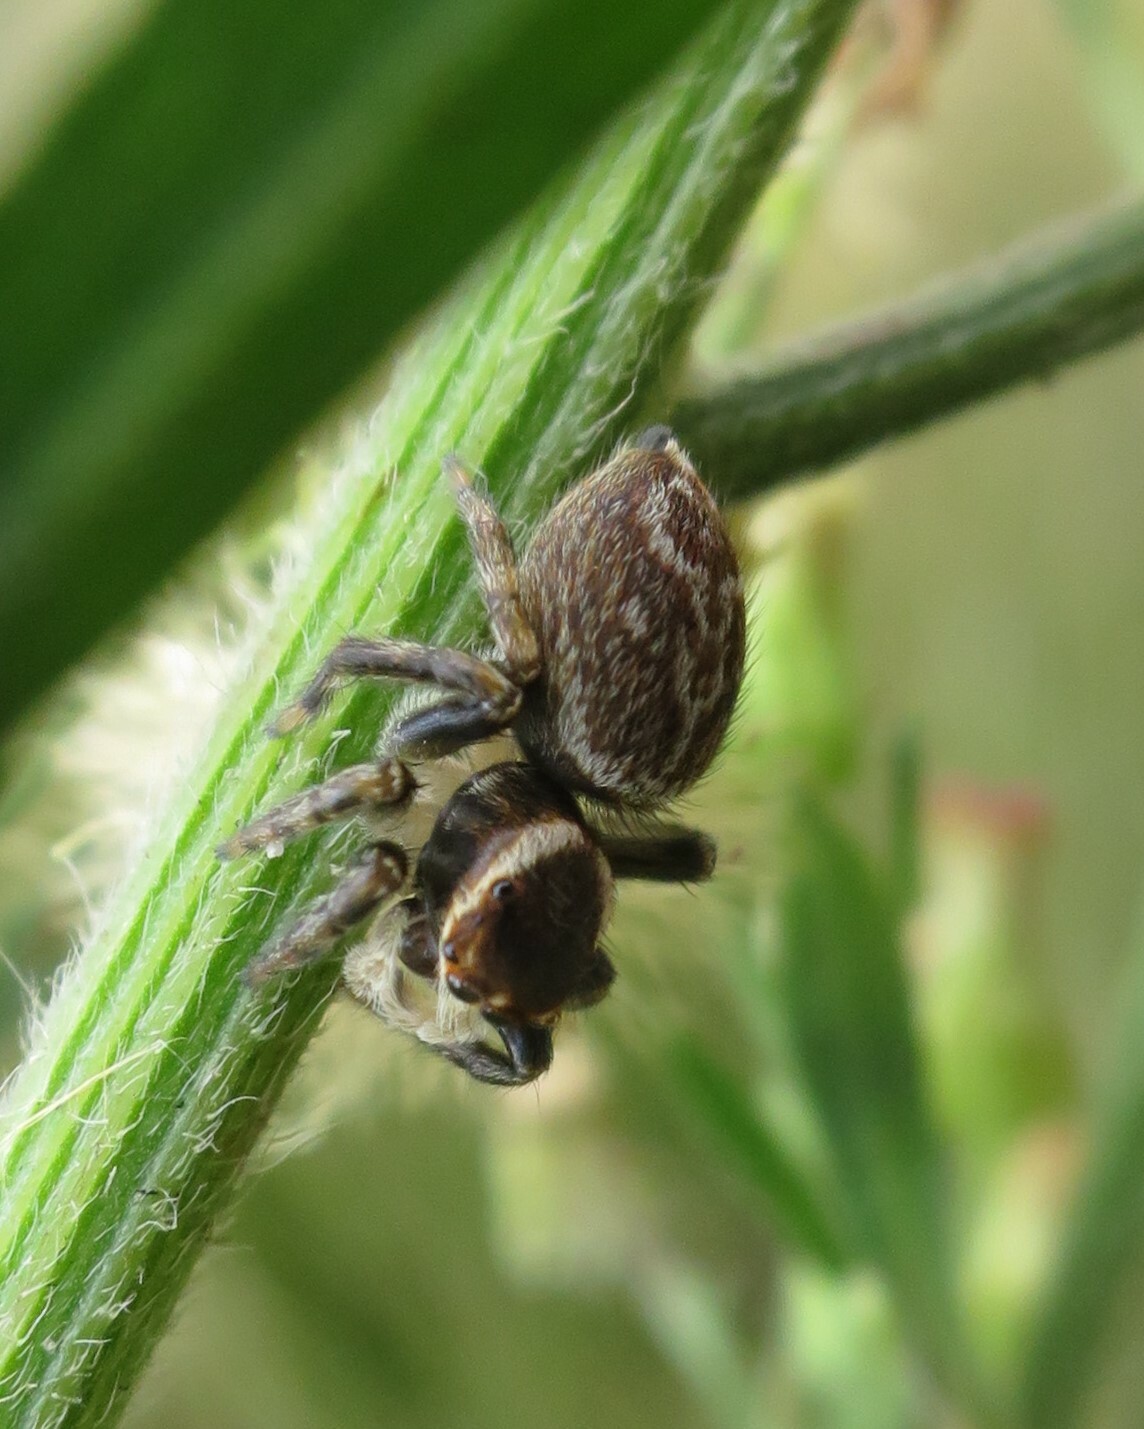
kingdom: Animalia
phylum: Arthropoda
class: Arachnida
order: Araneae
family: Salticidae
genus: Maratus
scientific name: Maratus griseus
